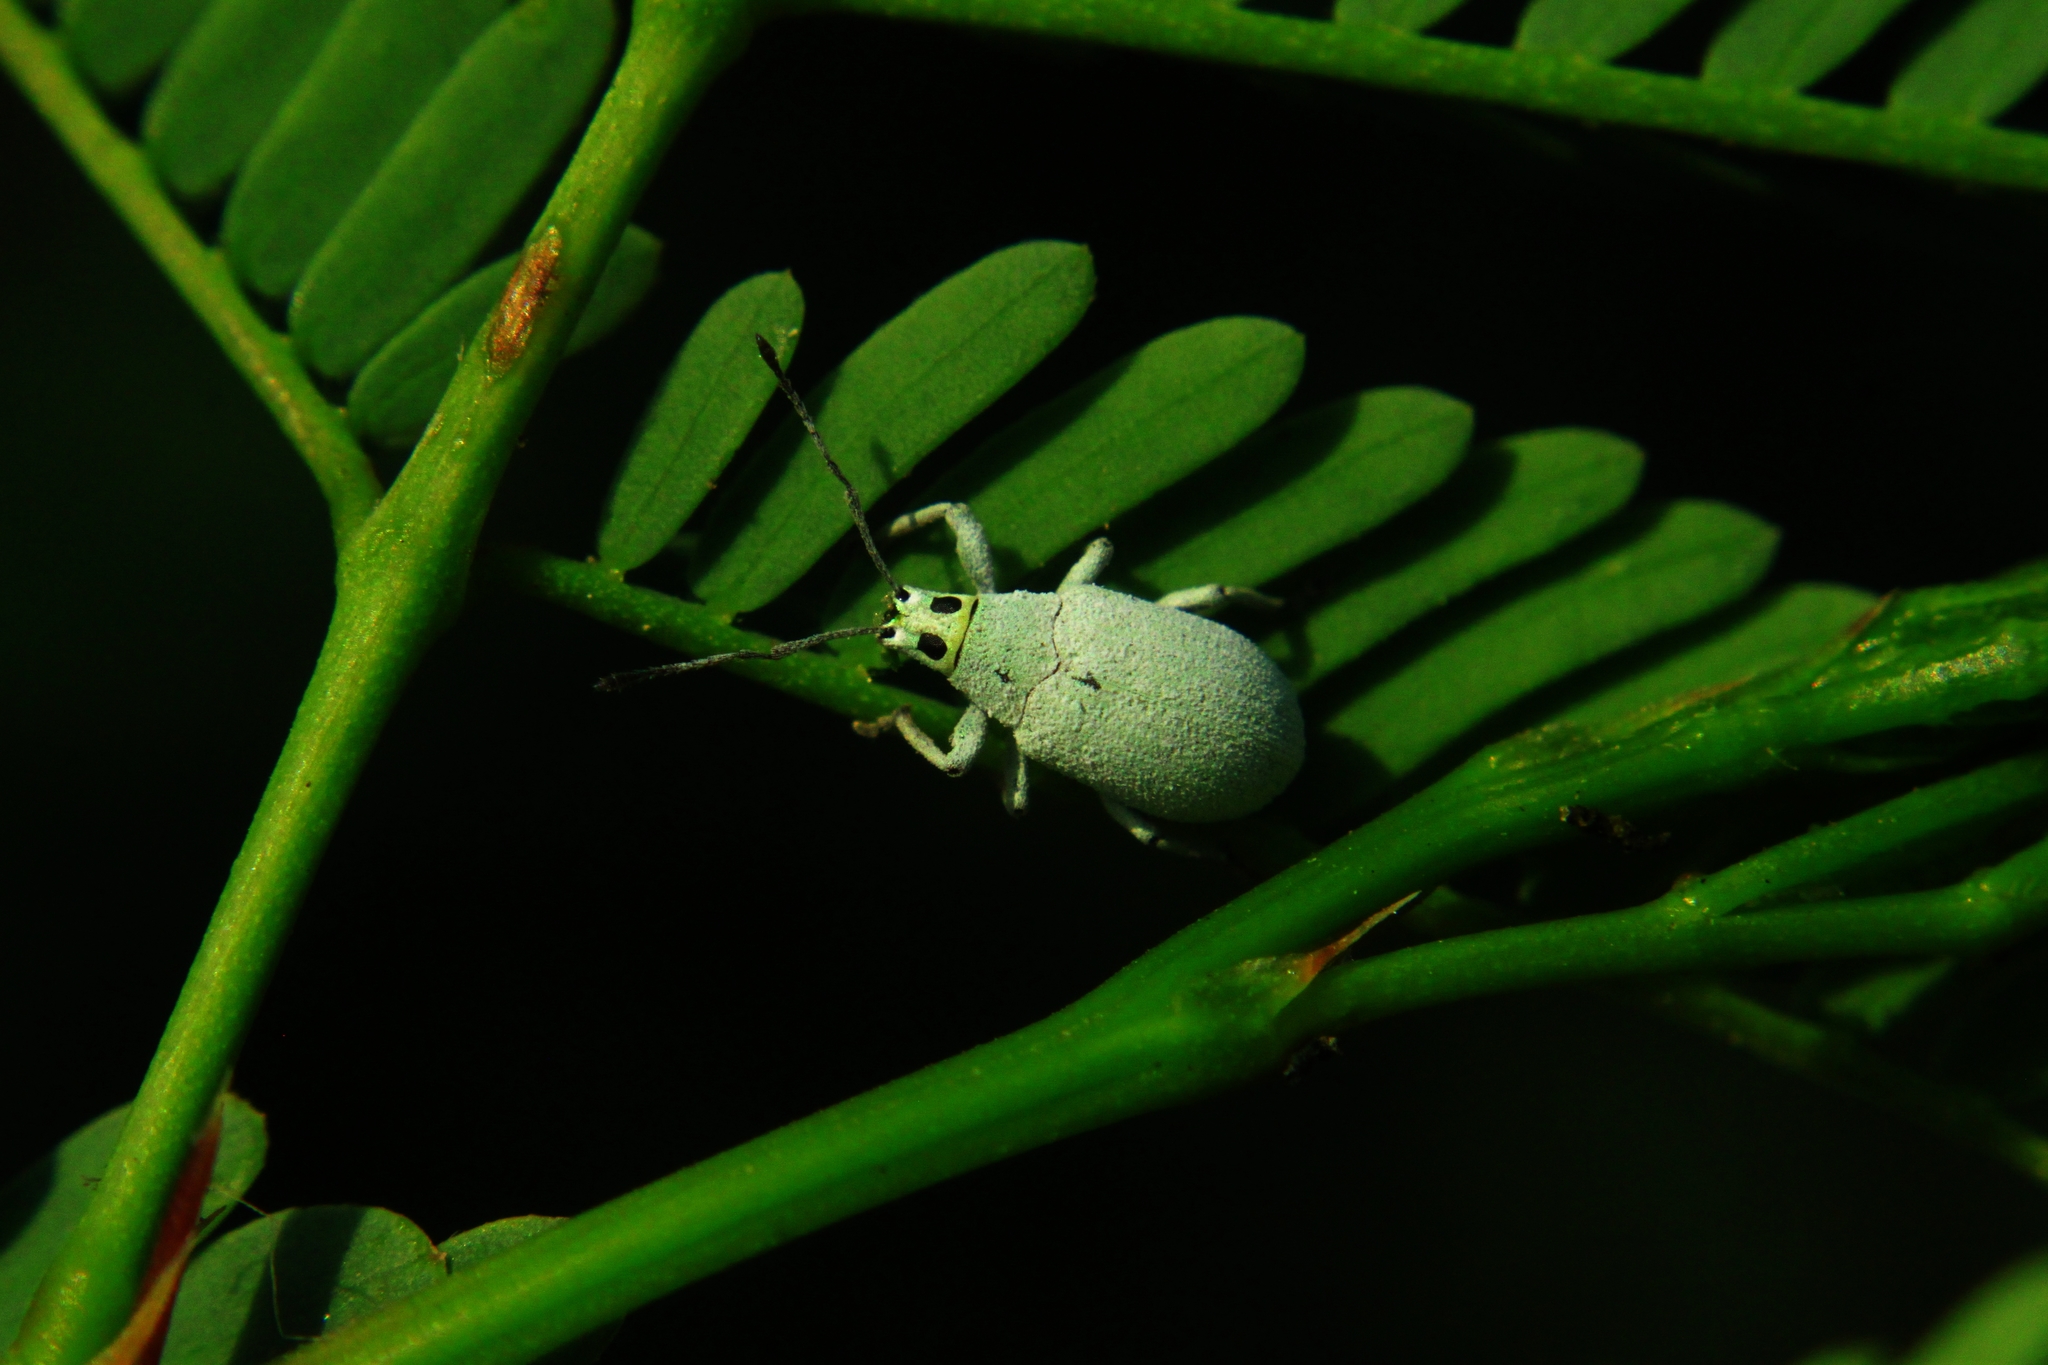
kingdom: Animalia
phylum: Arthropoda
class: Insecta
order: Coleoptera
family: Curculionidae
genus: Myllocerus
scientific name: Myllocerus paetus
